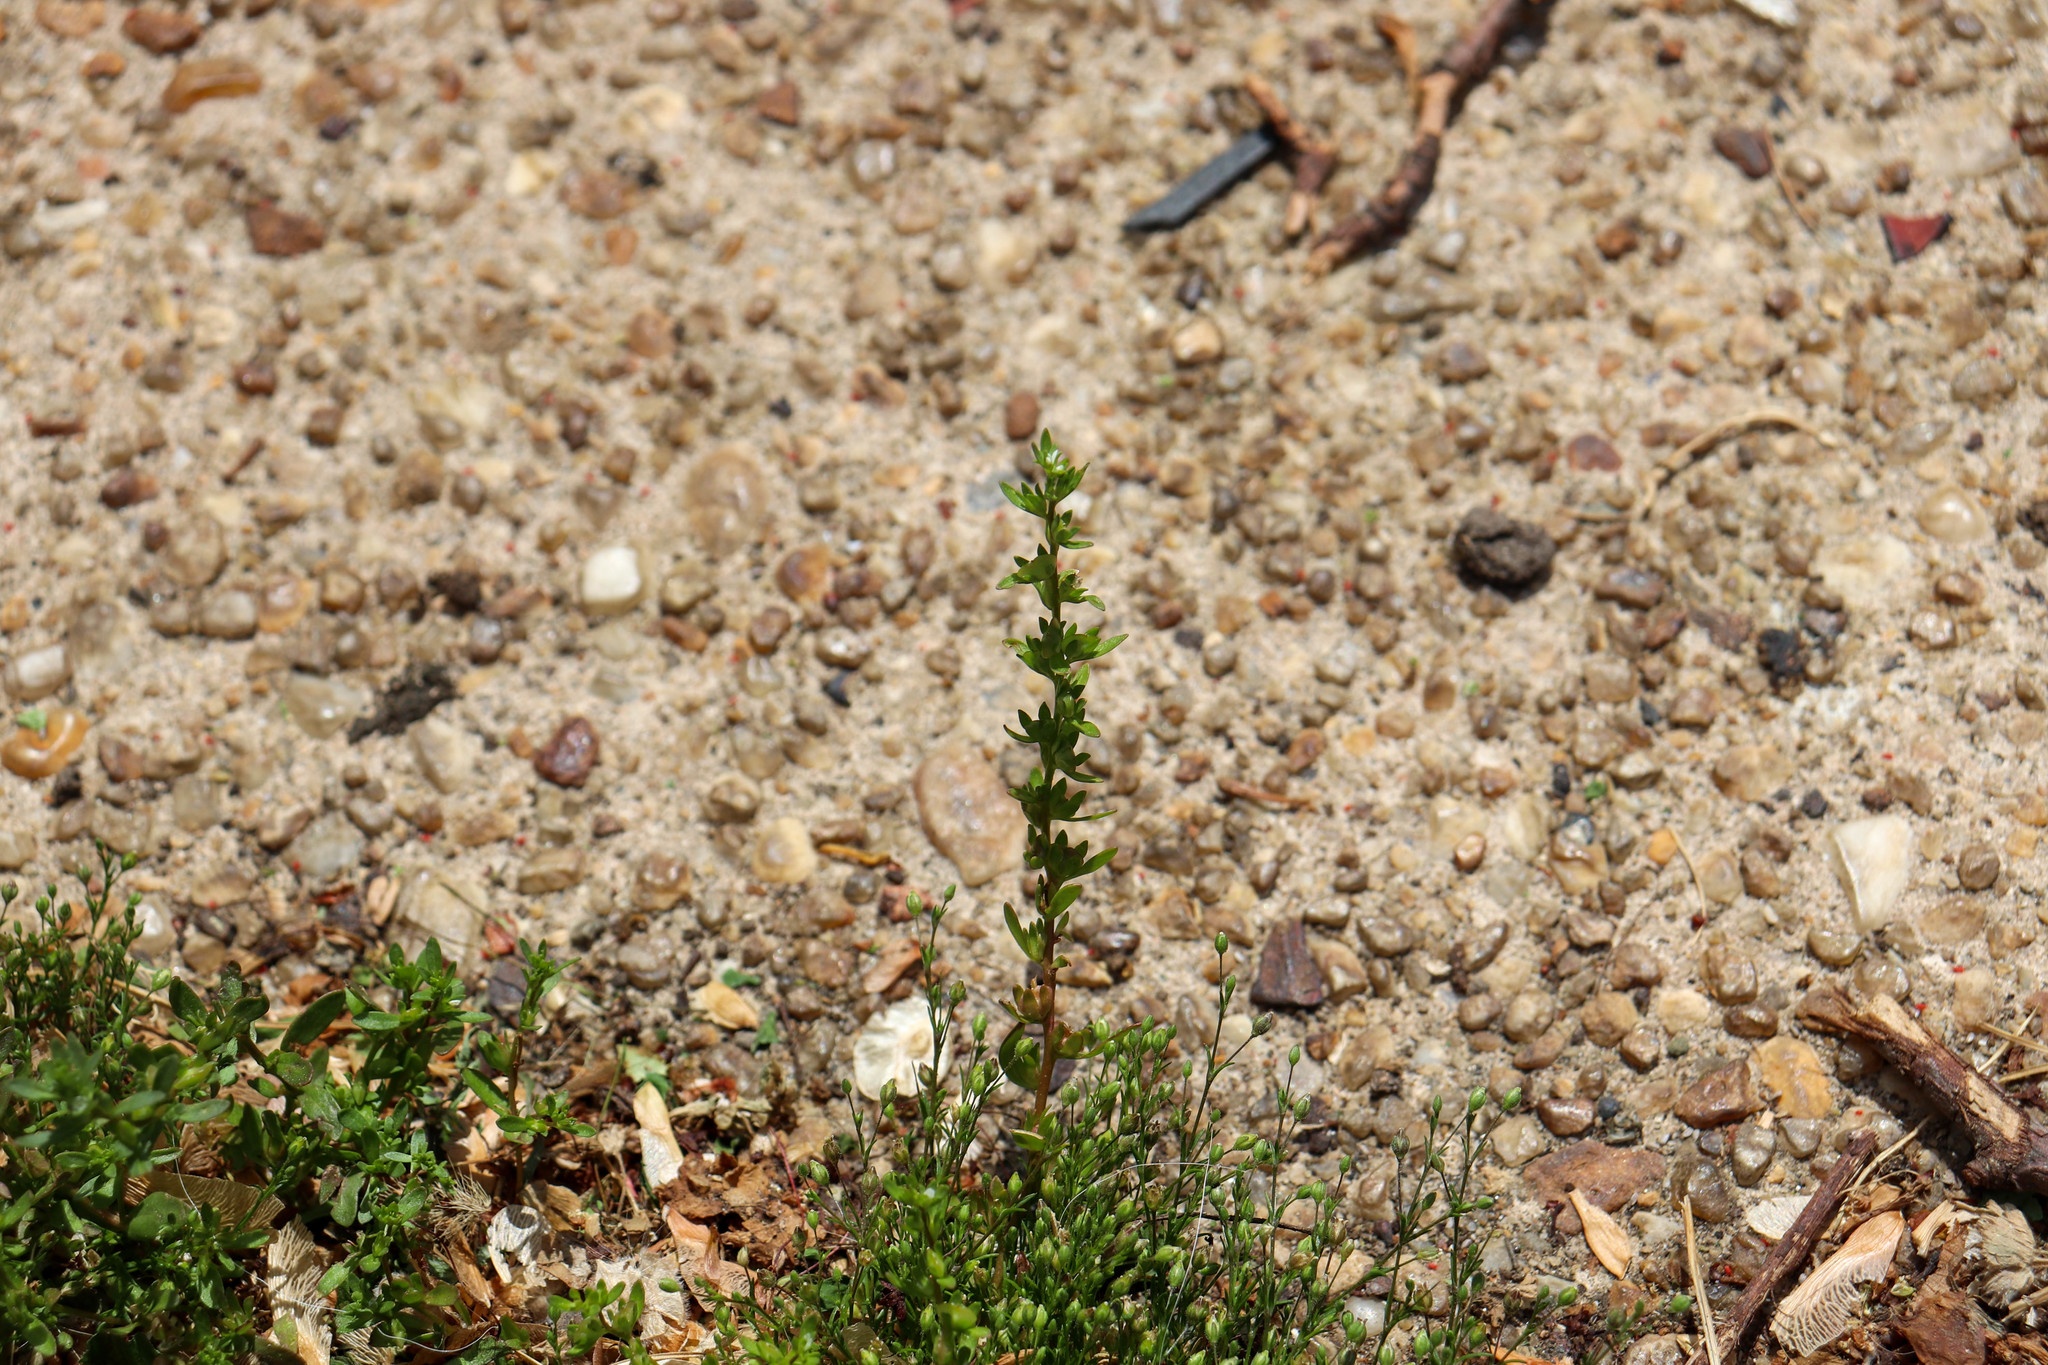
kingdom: Plantae
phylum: Tracheophyta
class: Magnoliopsida
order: Lamiales
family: Plantaginaceae
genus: Veronica
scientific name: Veronica peregrina
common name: Neckweed
